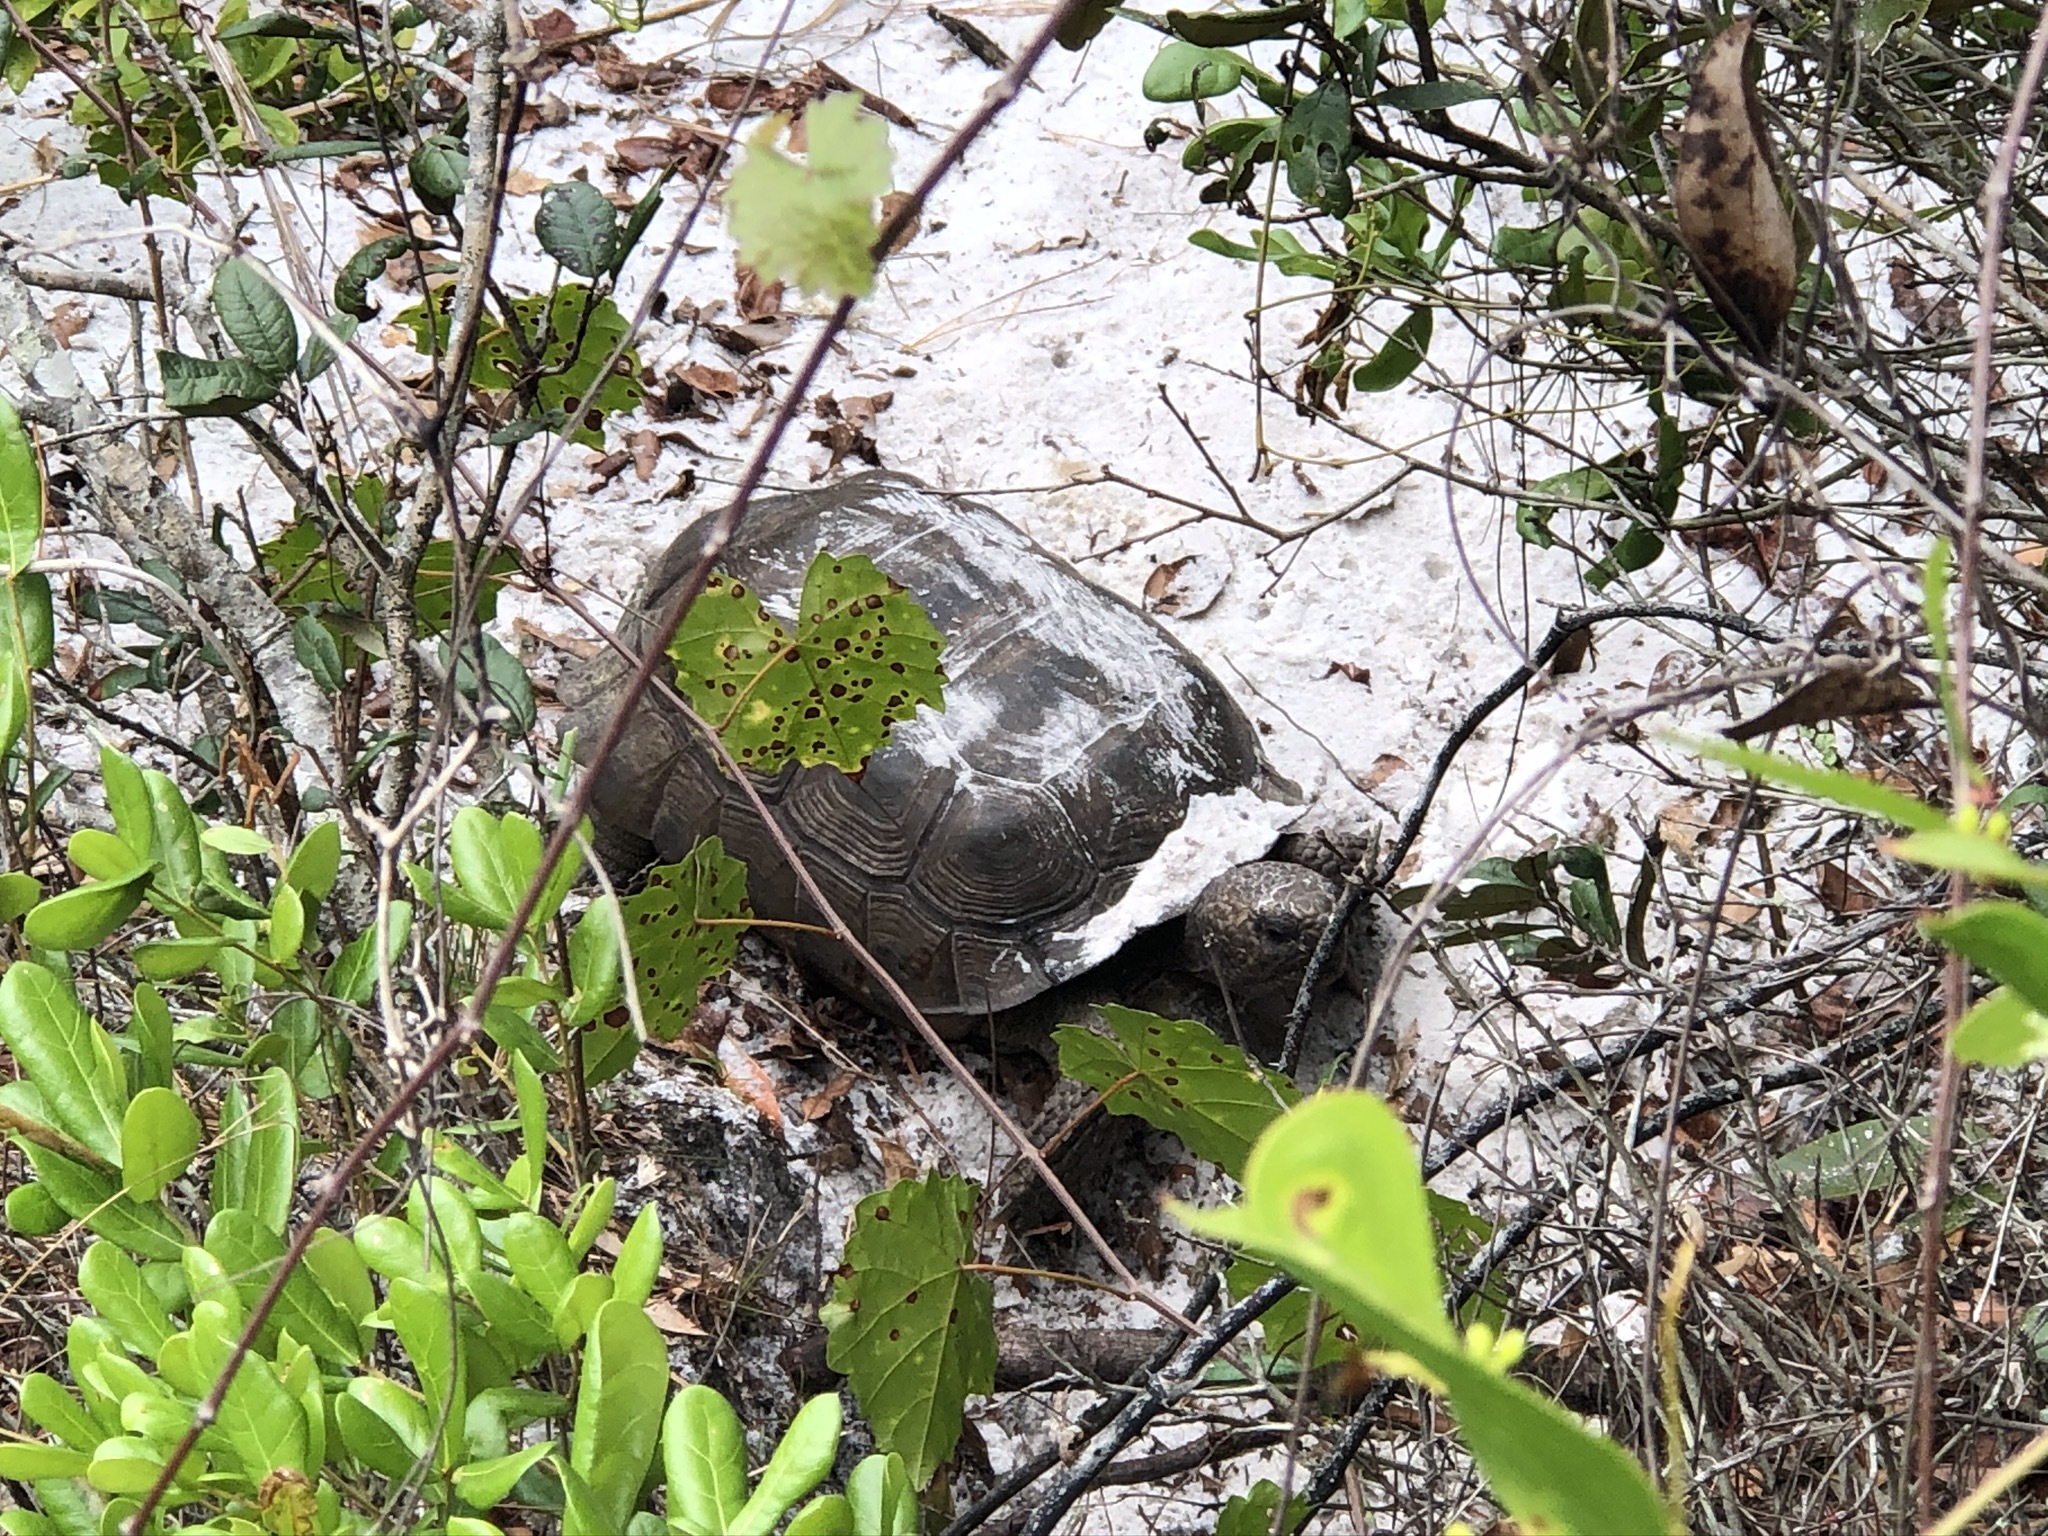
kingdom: Animalia
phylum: Chordata
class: Testudines
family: Testudinidae
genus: Gopherus
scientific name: Gopherus polyphemus
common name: Florida gopher tortoise
